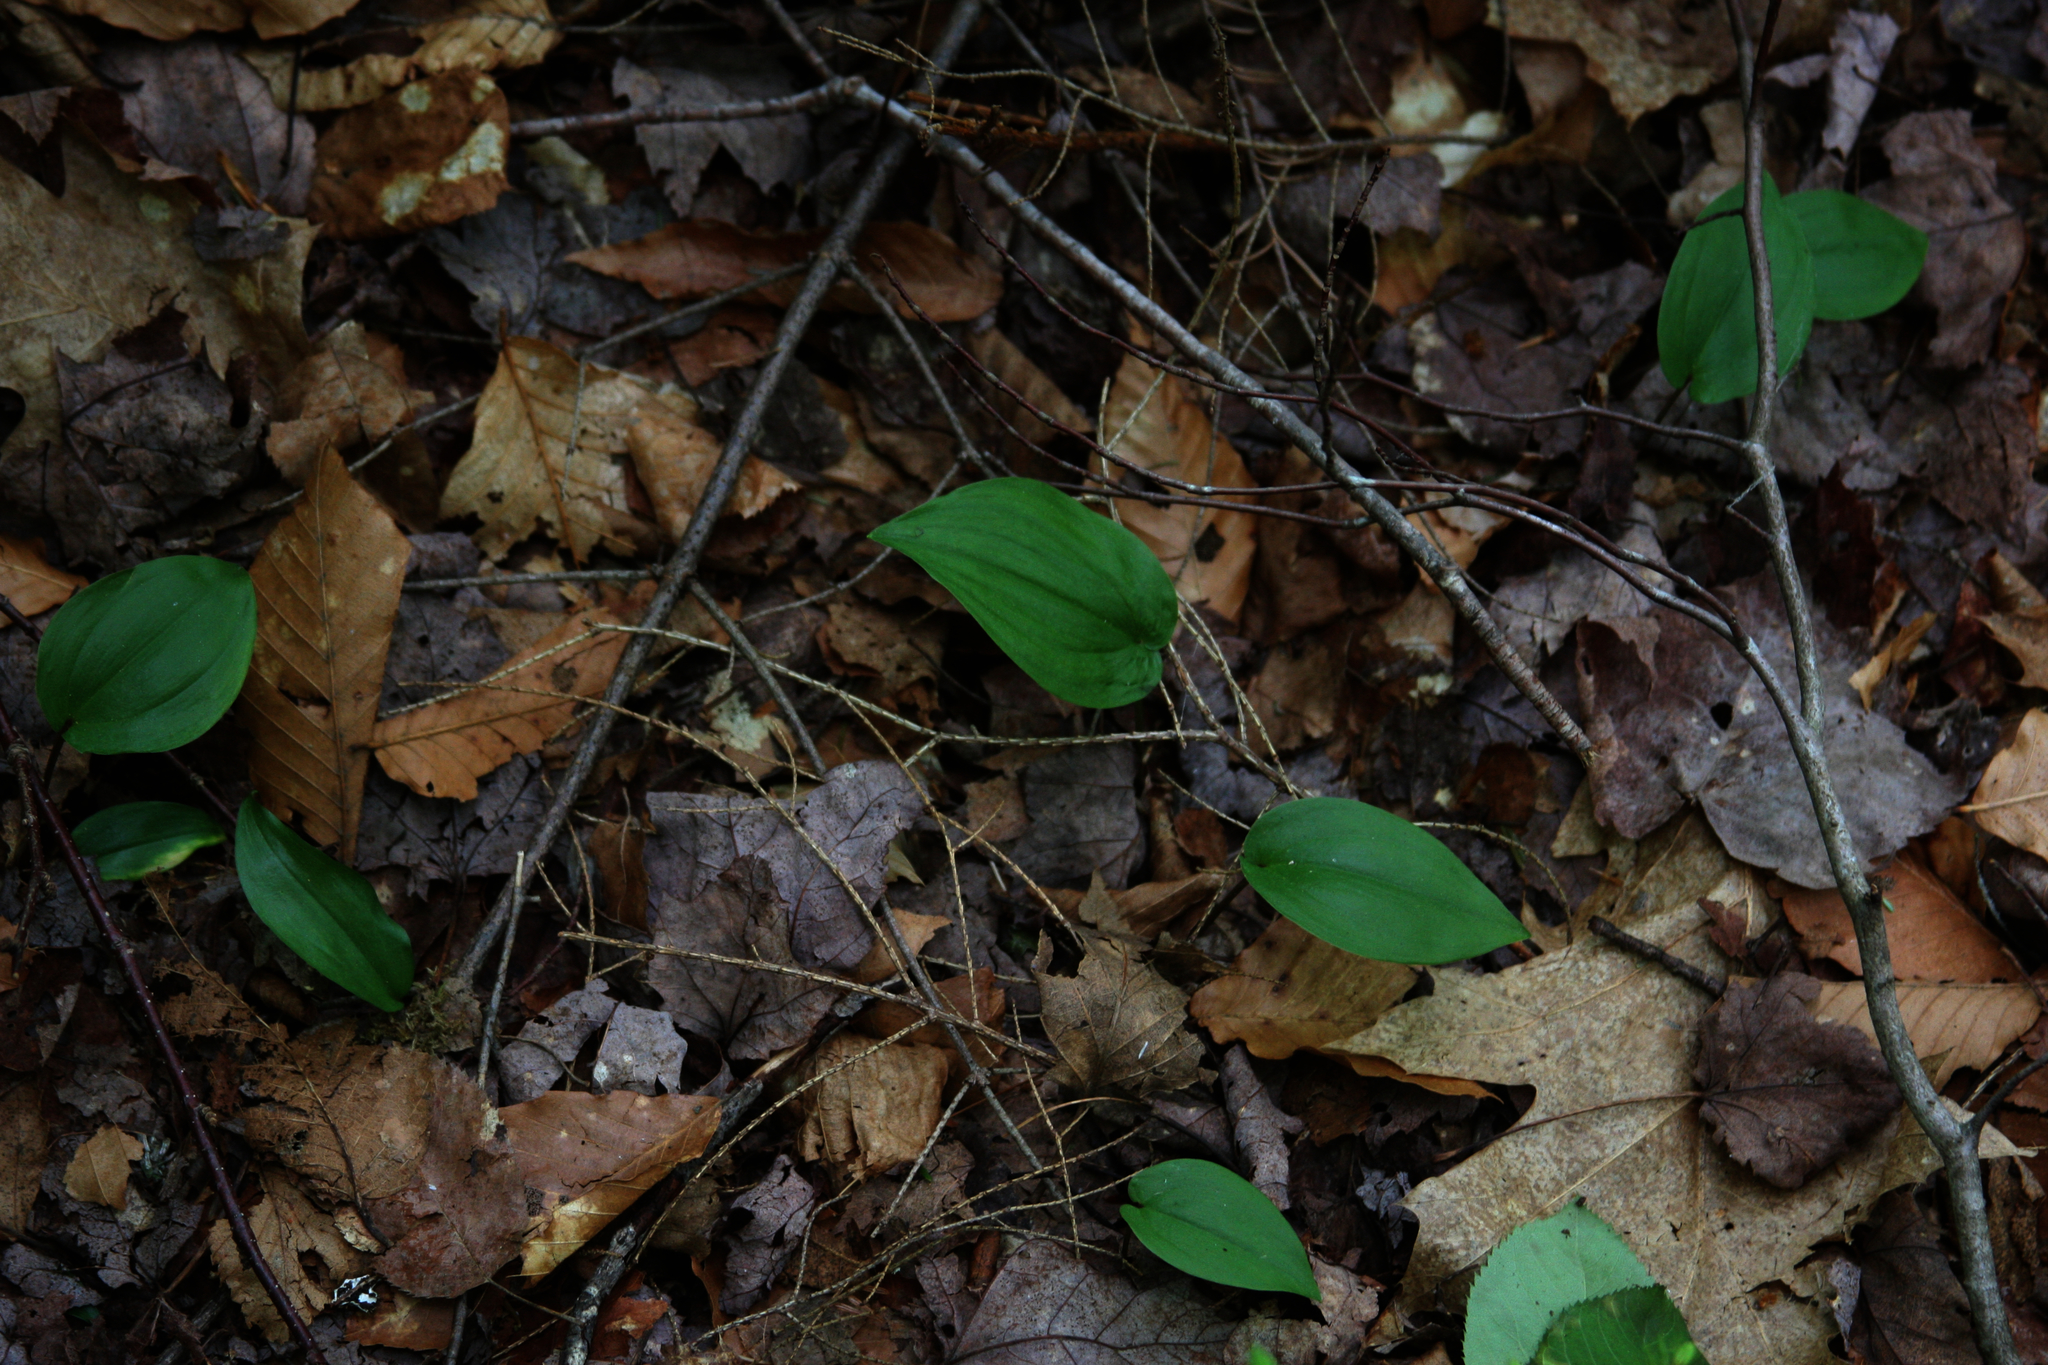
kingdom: Plantae
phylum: Tracheophyta
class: Liliopsida
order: Asparagales
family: Asparagaceae
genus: Maianthemum
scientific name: Maianthemum canadense
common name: False lily-of-the-valley
